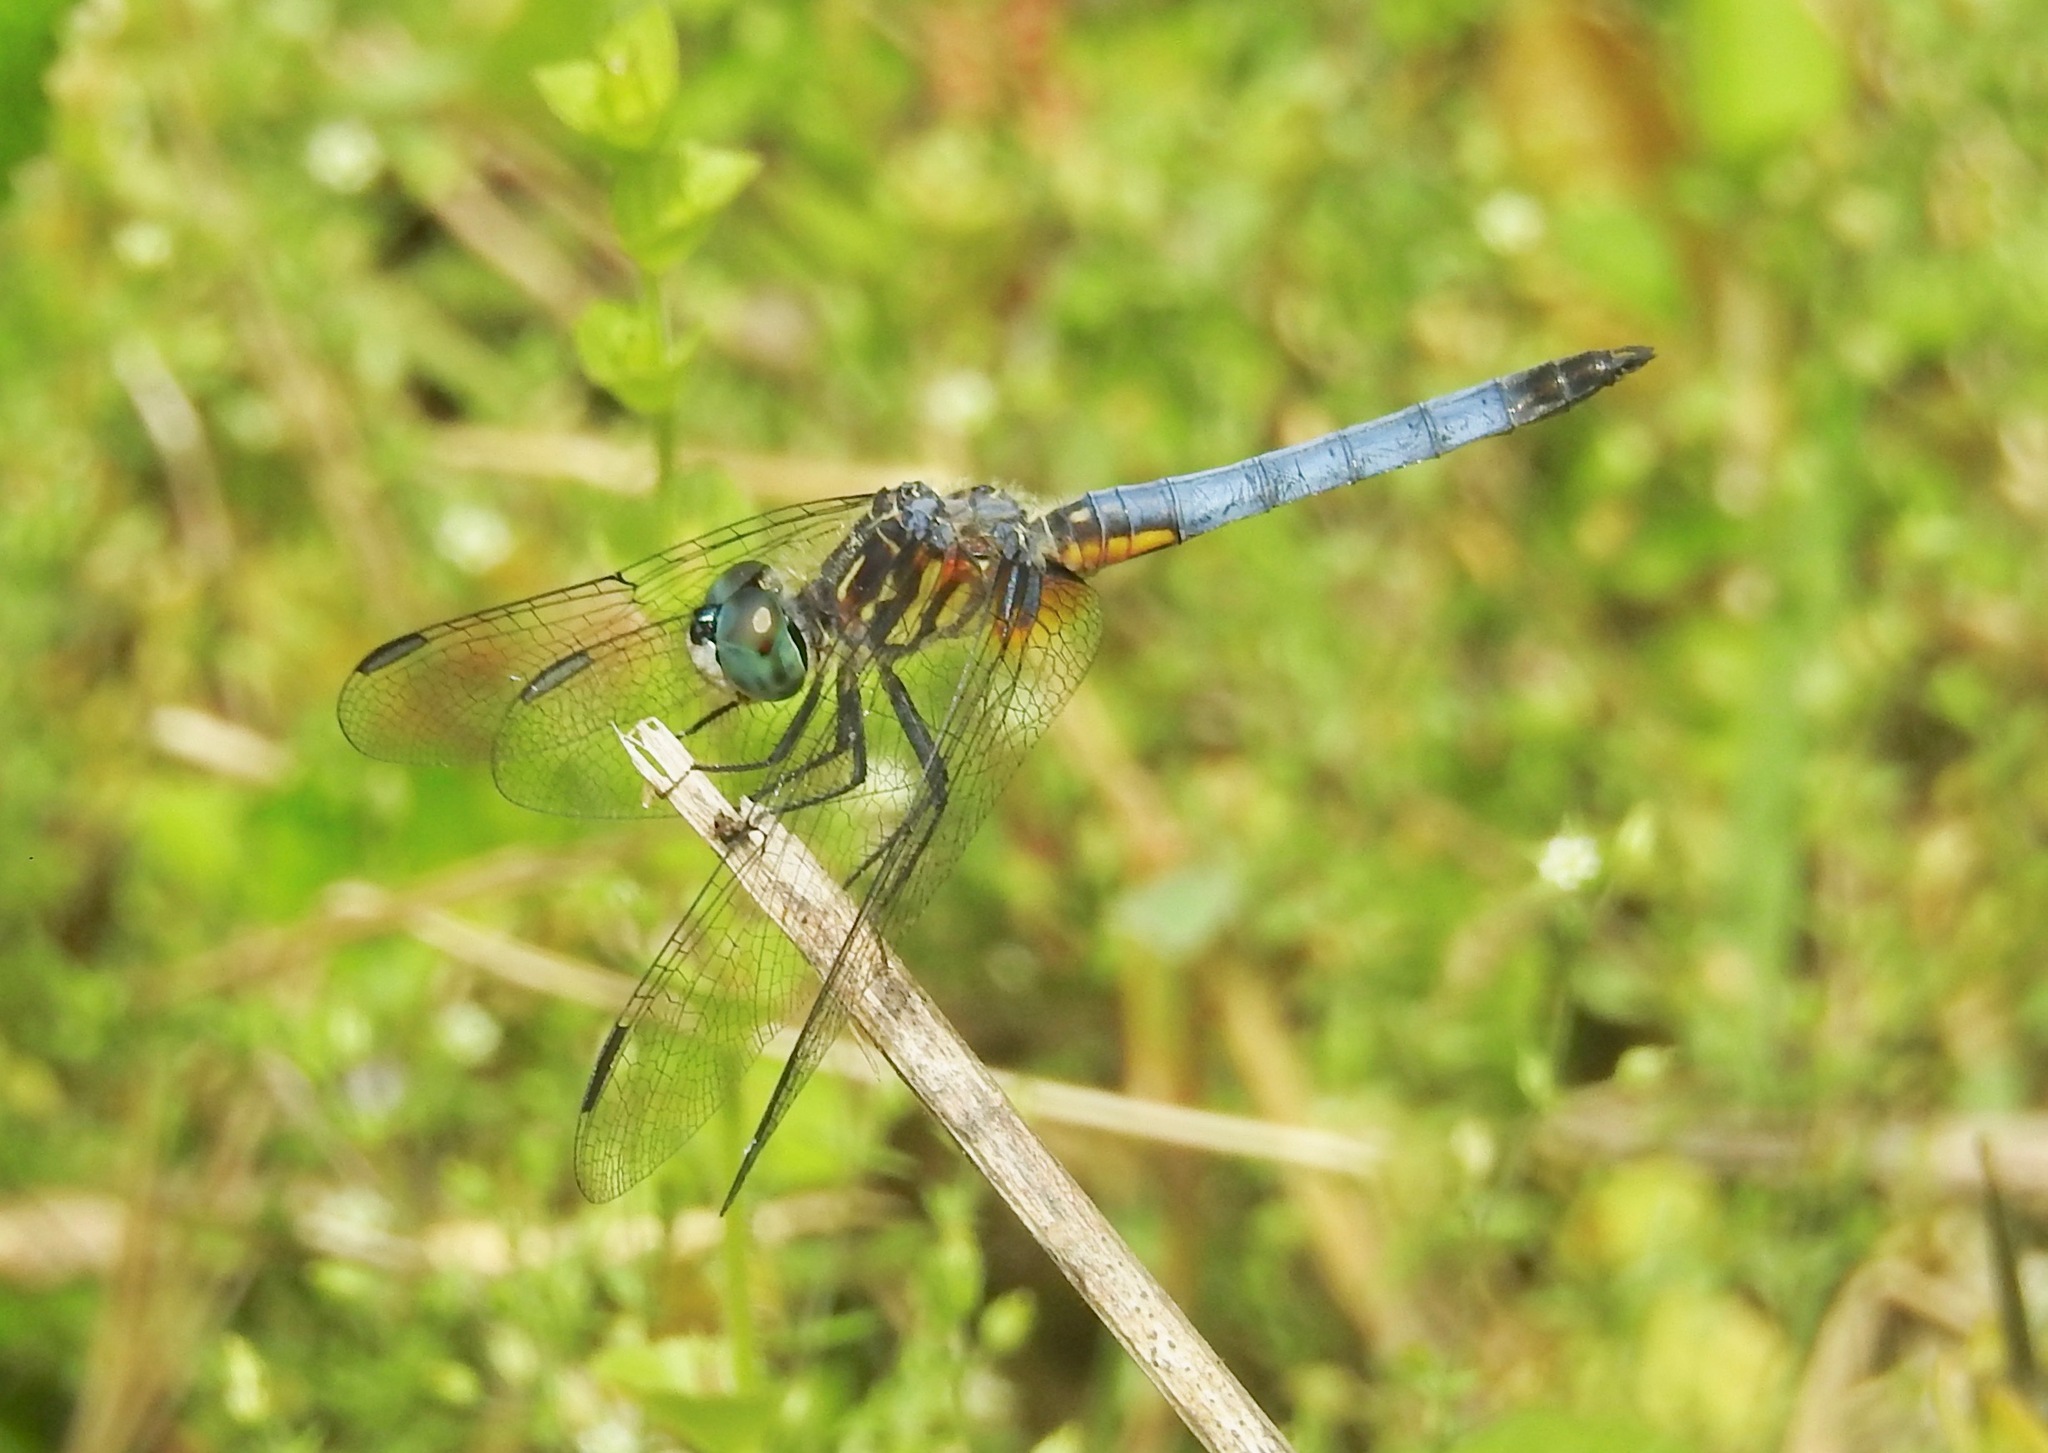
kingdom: Animalia
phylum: Arthropoda
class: Insecta
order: Odonata
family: Libellulidae
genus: Pachydiplax
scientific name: Pachydiplax longipennis
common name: Blue dasher
